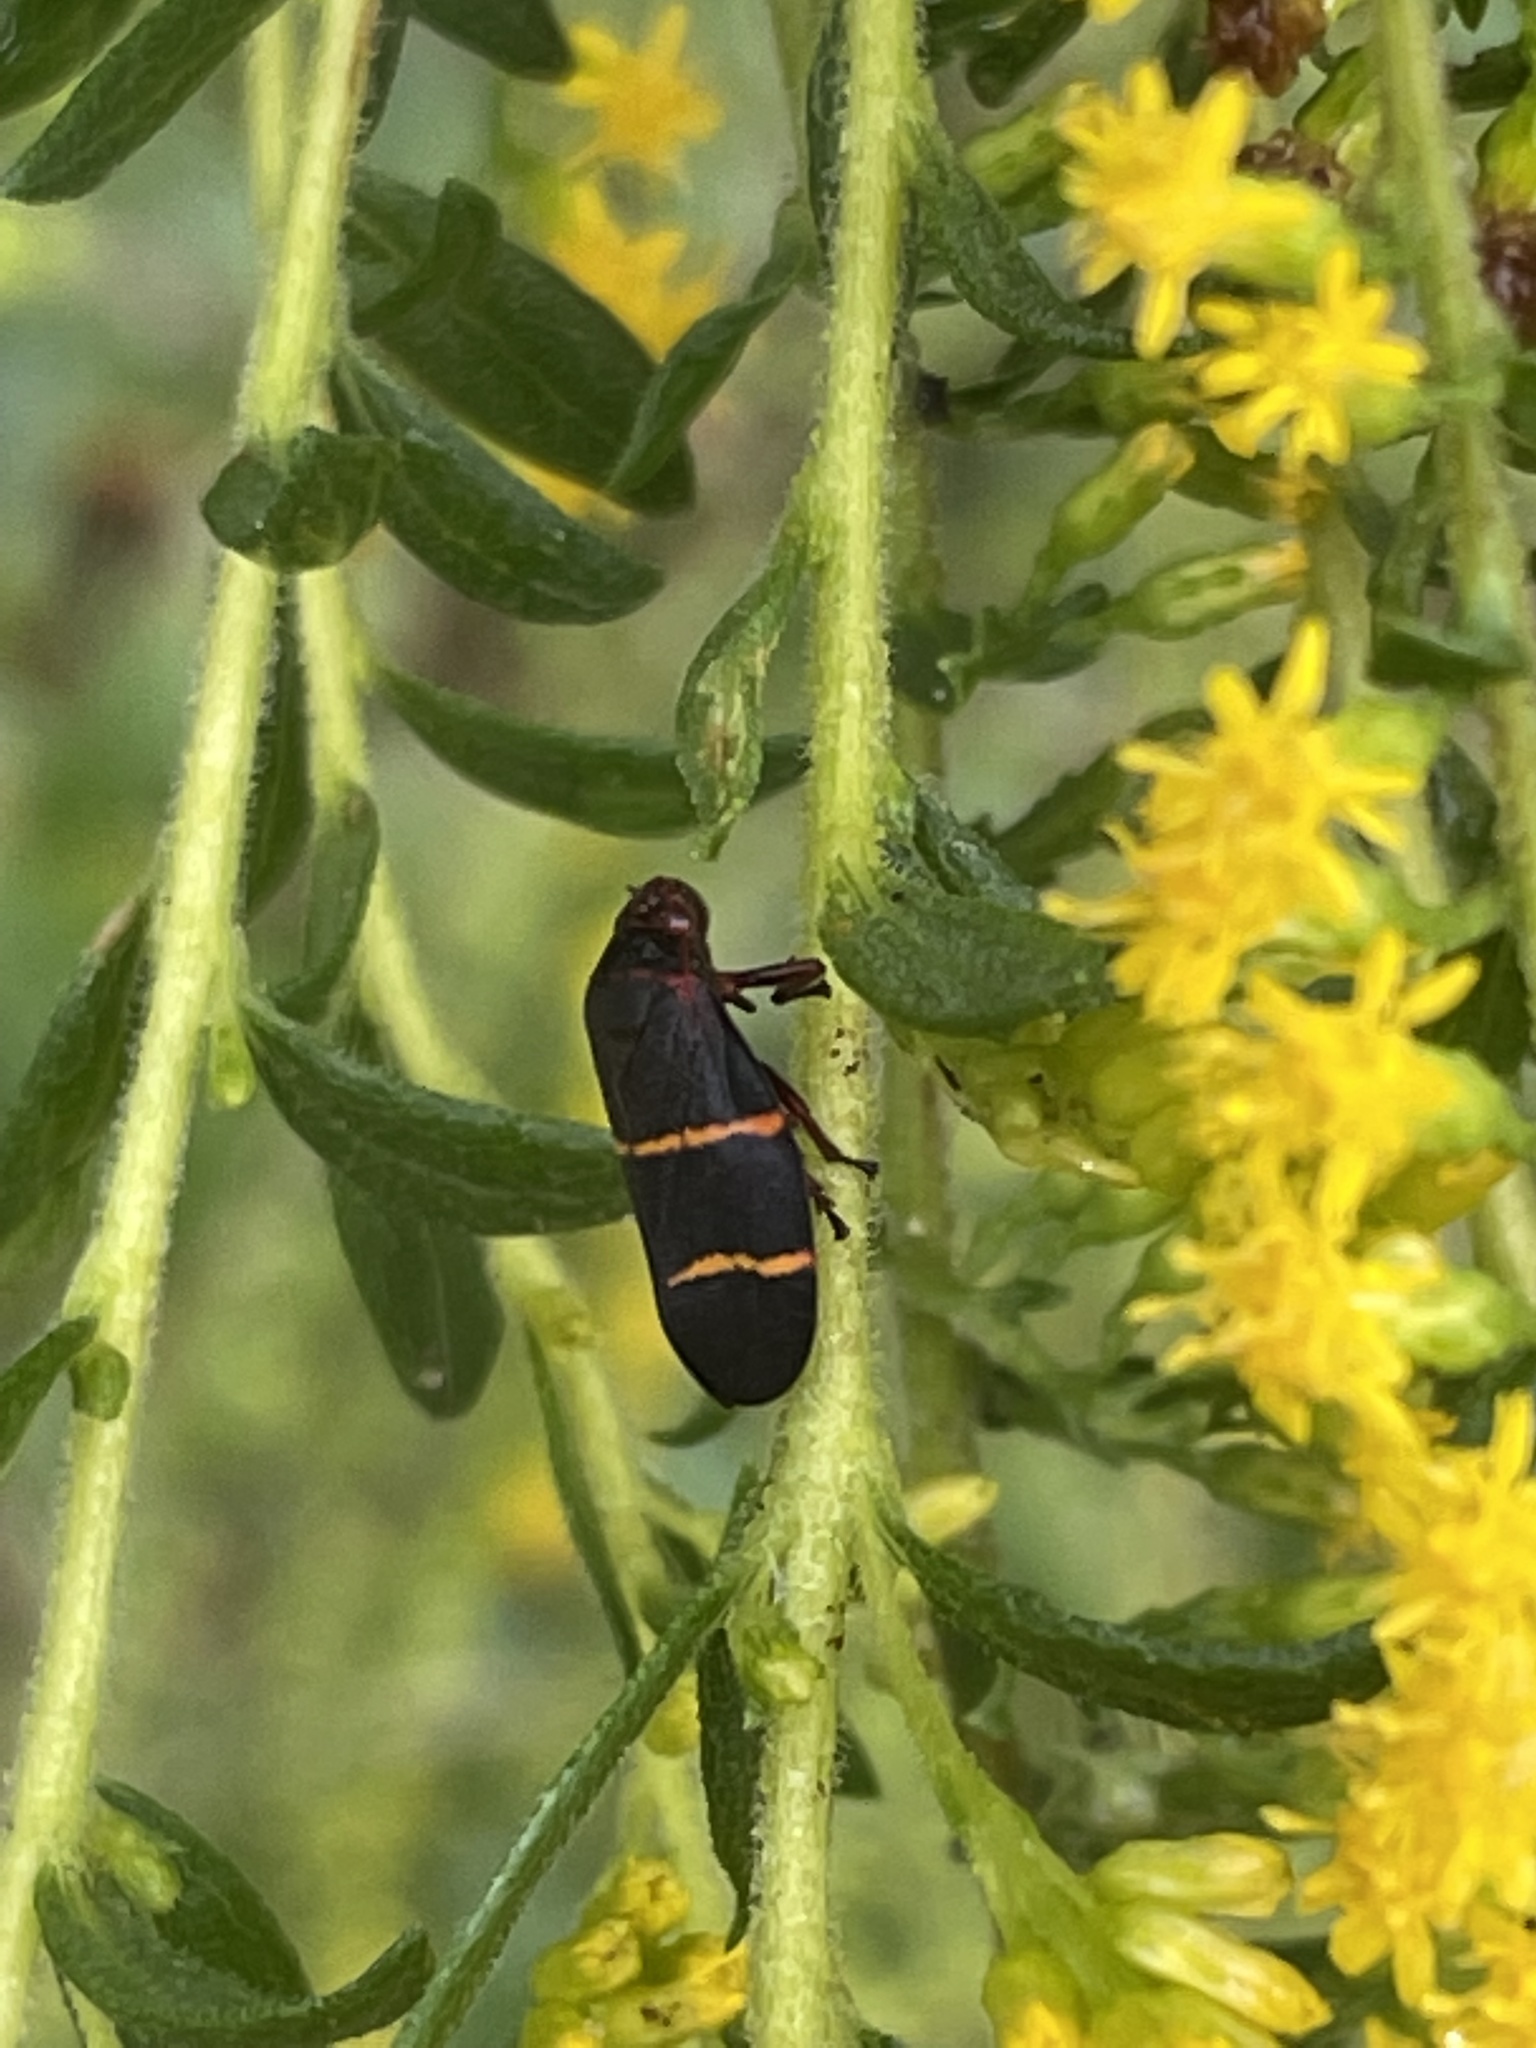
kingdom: Animalia
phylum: Arthropoda
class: Insecta
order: Hemiptera
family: Cercopidae
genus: Prosapia
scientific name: Prosapia bicincta
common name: Twolined spittlebug
